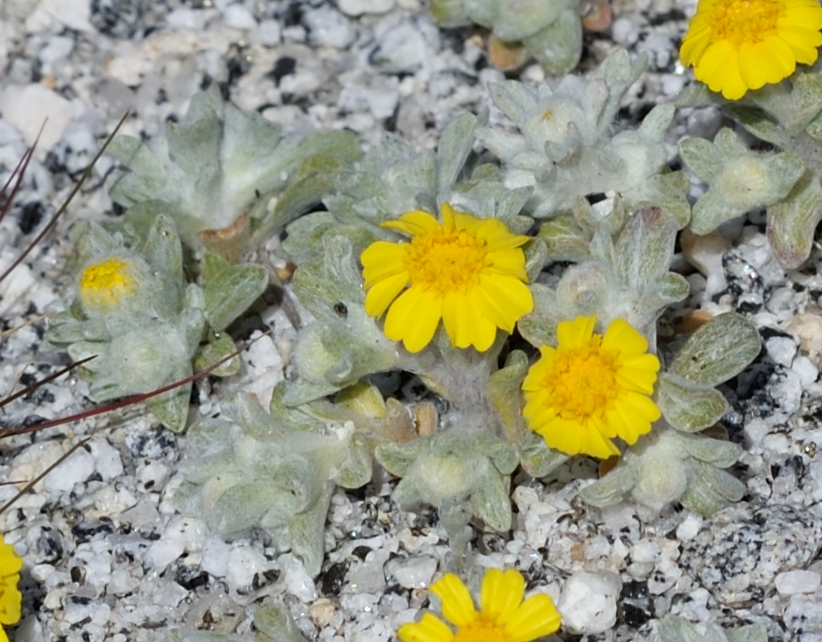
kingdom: Plantae
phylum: Tracheophyta
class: Magnoliopsida
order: Asterales
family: Asteraceae
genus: Eriophyllum
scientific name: Eriophyllum wallacei
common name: Wallace's woolly daisy
